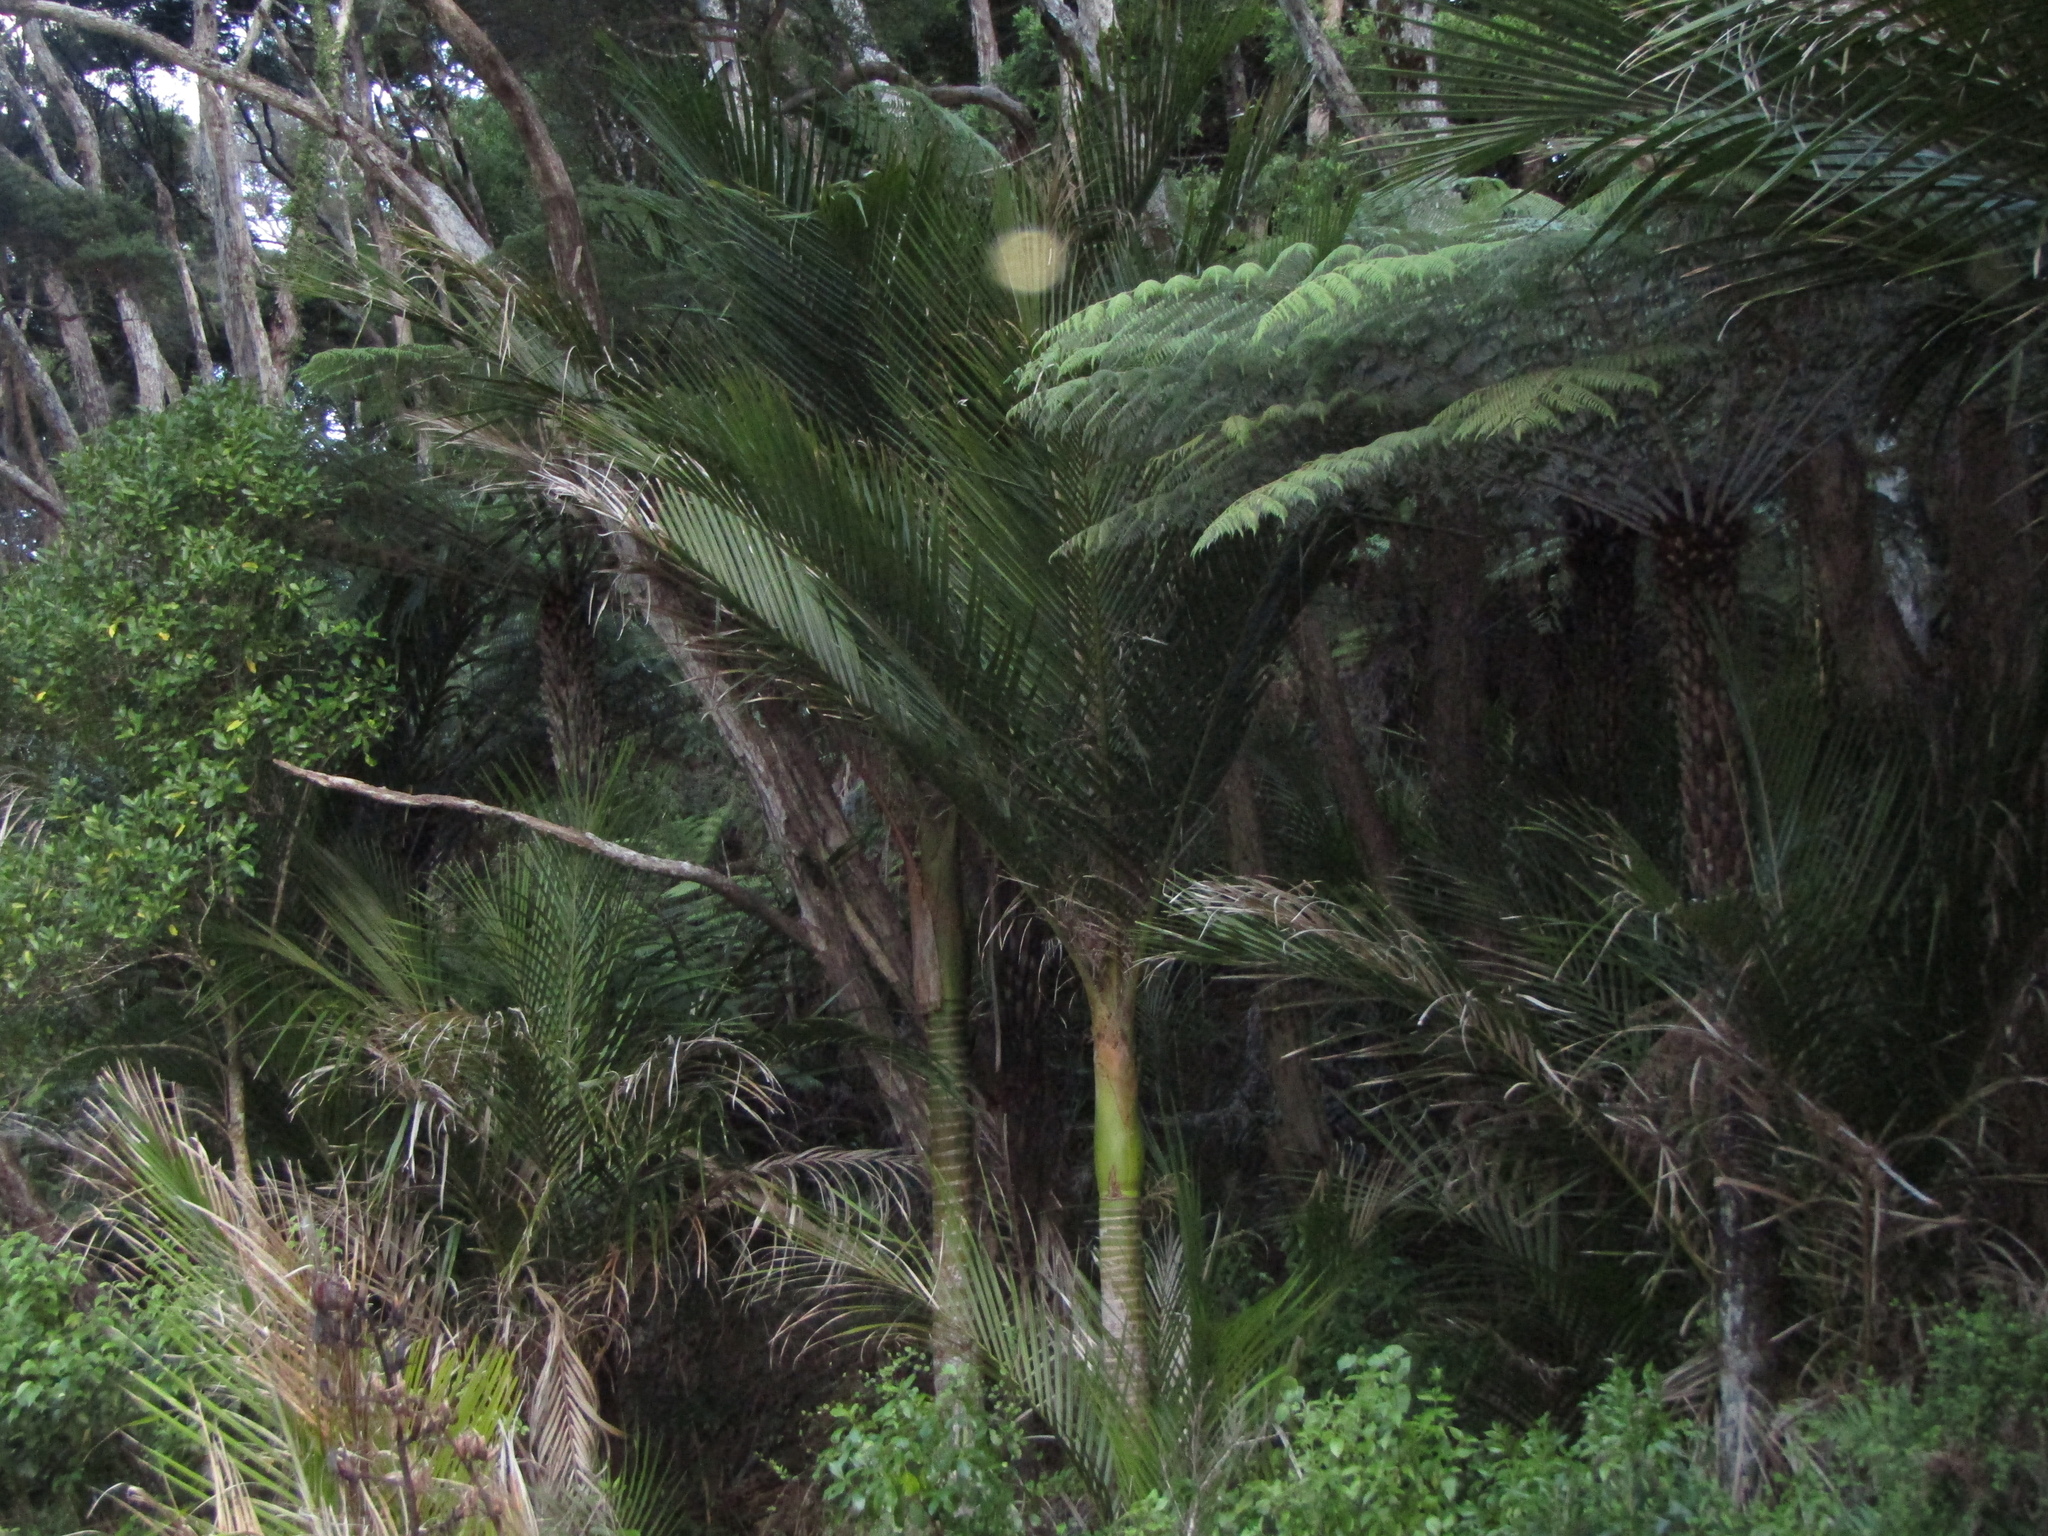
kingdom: Plantae
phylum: Tracheophyta
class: Liliopsida
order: Arecales
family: Arecaceae
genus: Rhopalostylis
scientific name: Rhopalostylis sapida
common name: Feather-duster palm
